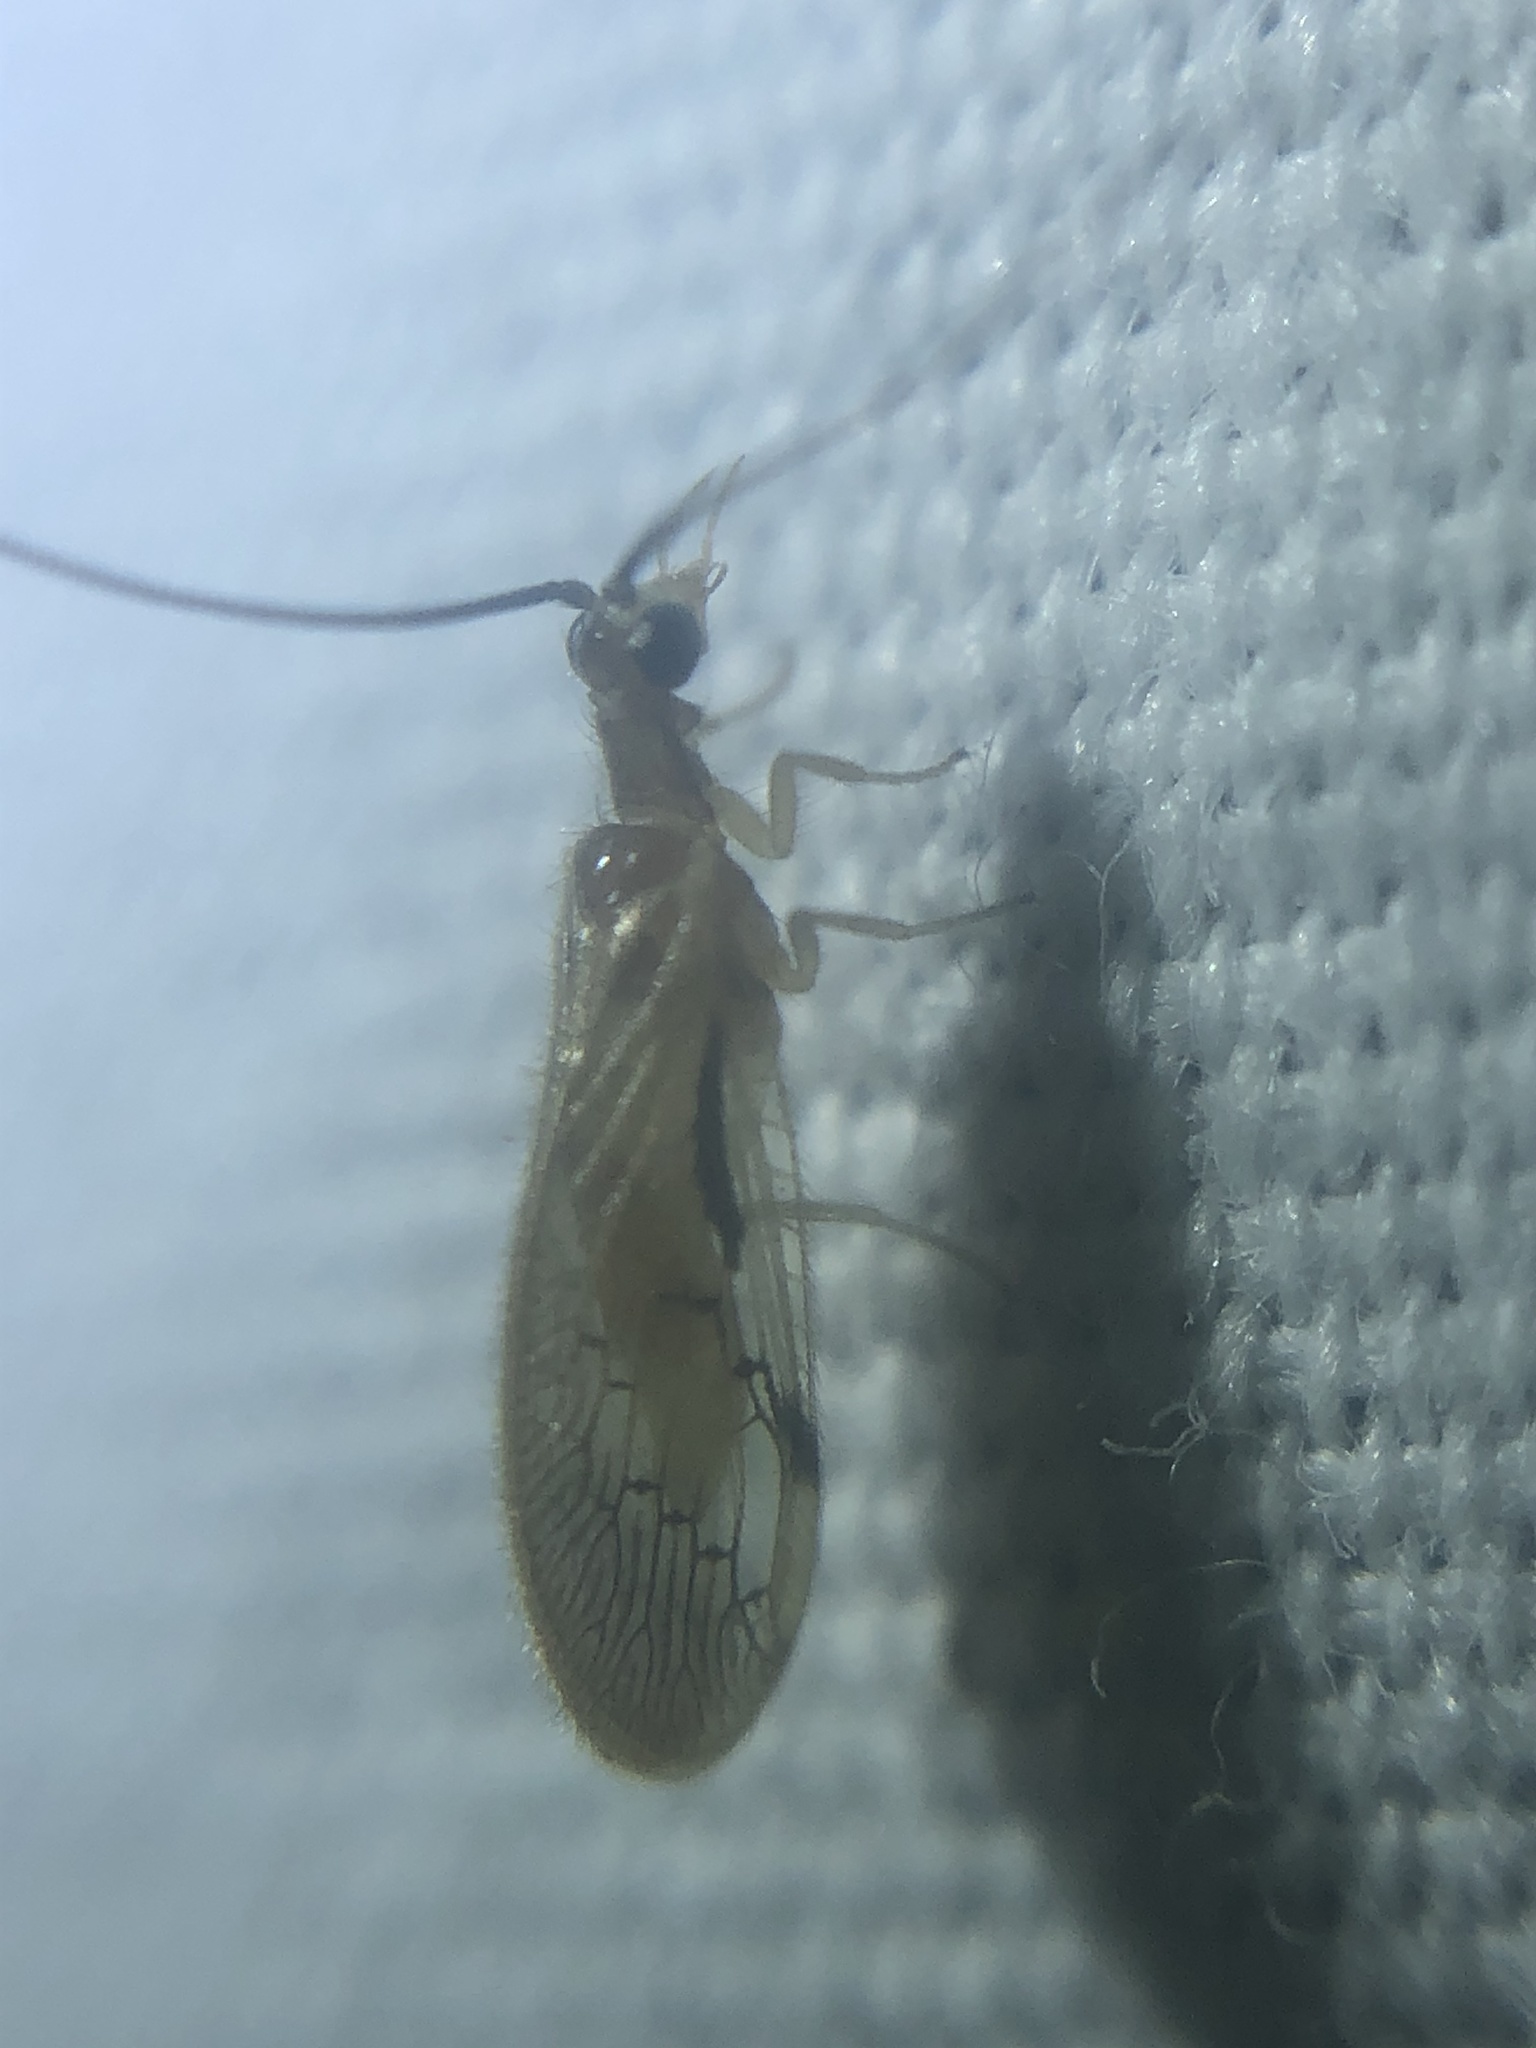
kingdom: Animalia
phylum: Arthropoda
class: Insecta
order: Neuroptera
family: Sisyridae
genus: Climacia
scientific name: Climacia chapini
